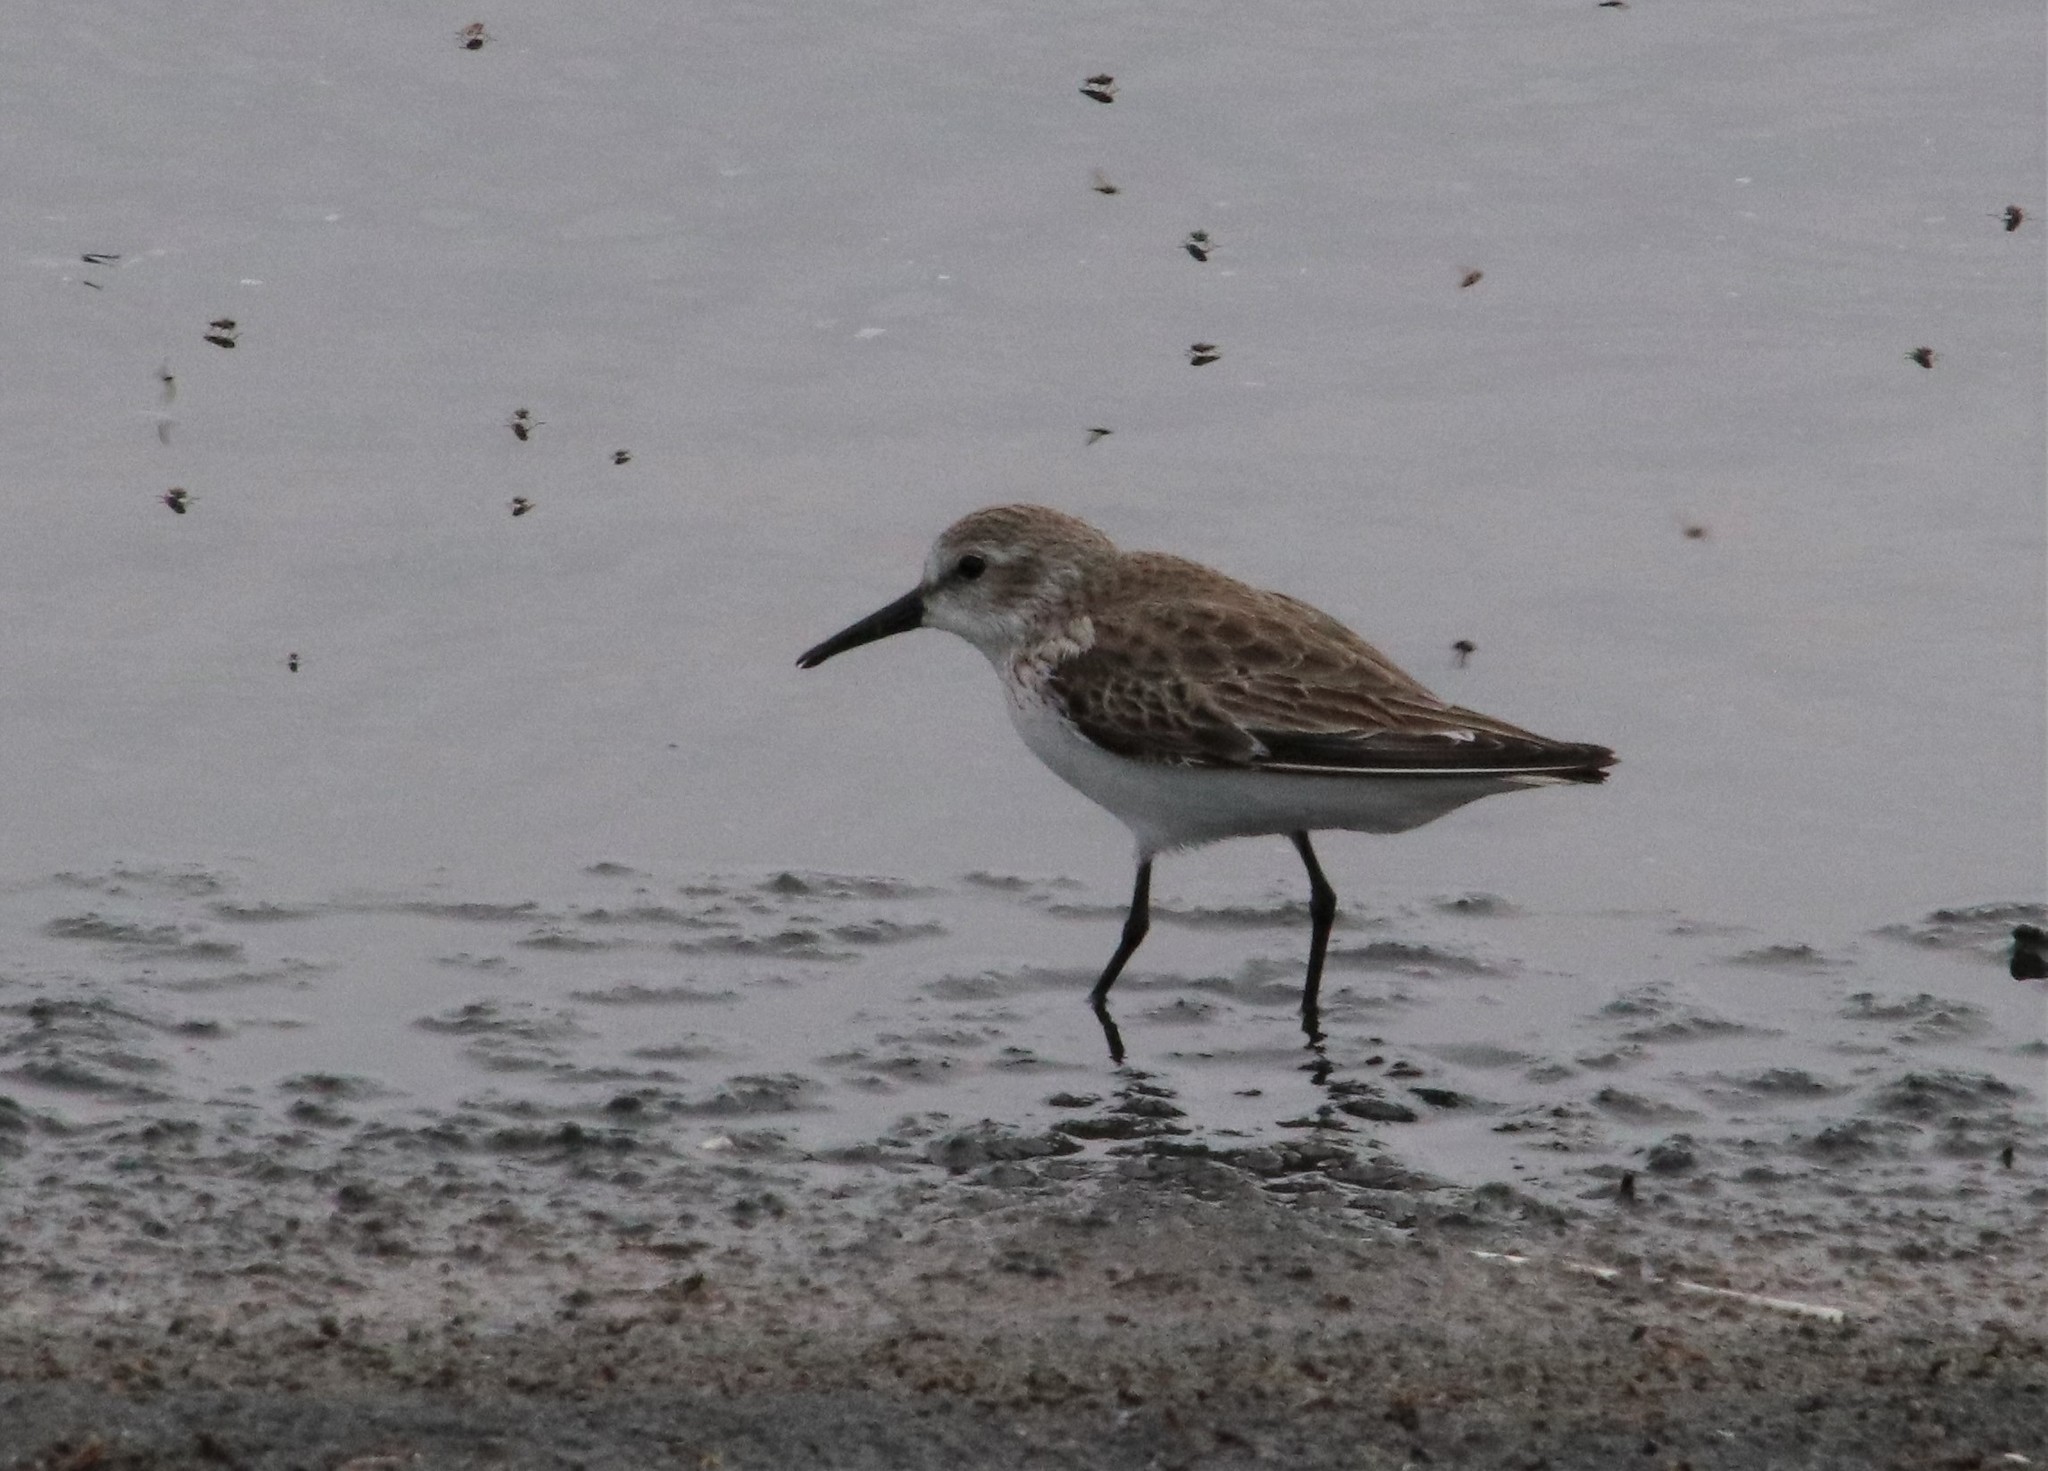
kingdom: Animalia
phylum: Chordata
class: Aves
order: Charadriiformes
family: Scolopacidae
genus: Calidris
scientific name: Calidris mauri
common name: Western sandpiper
